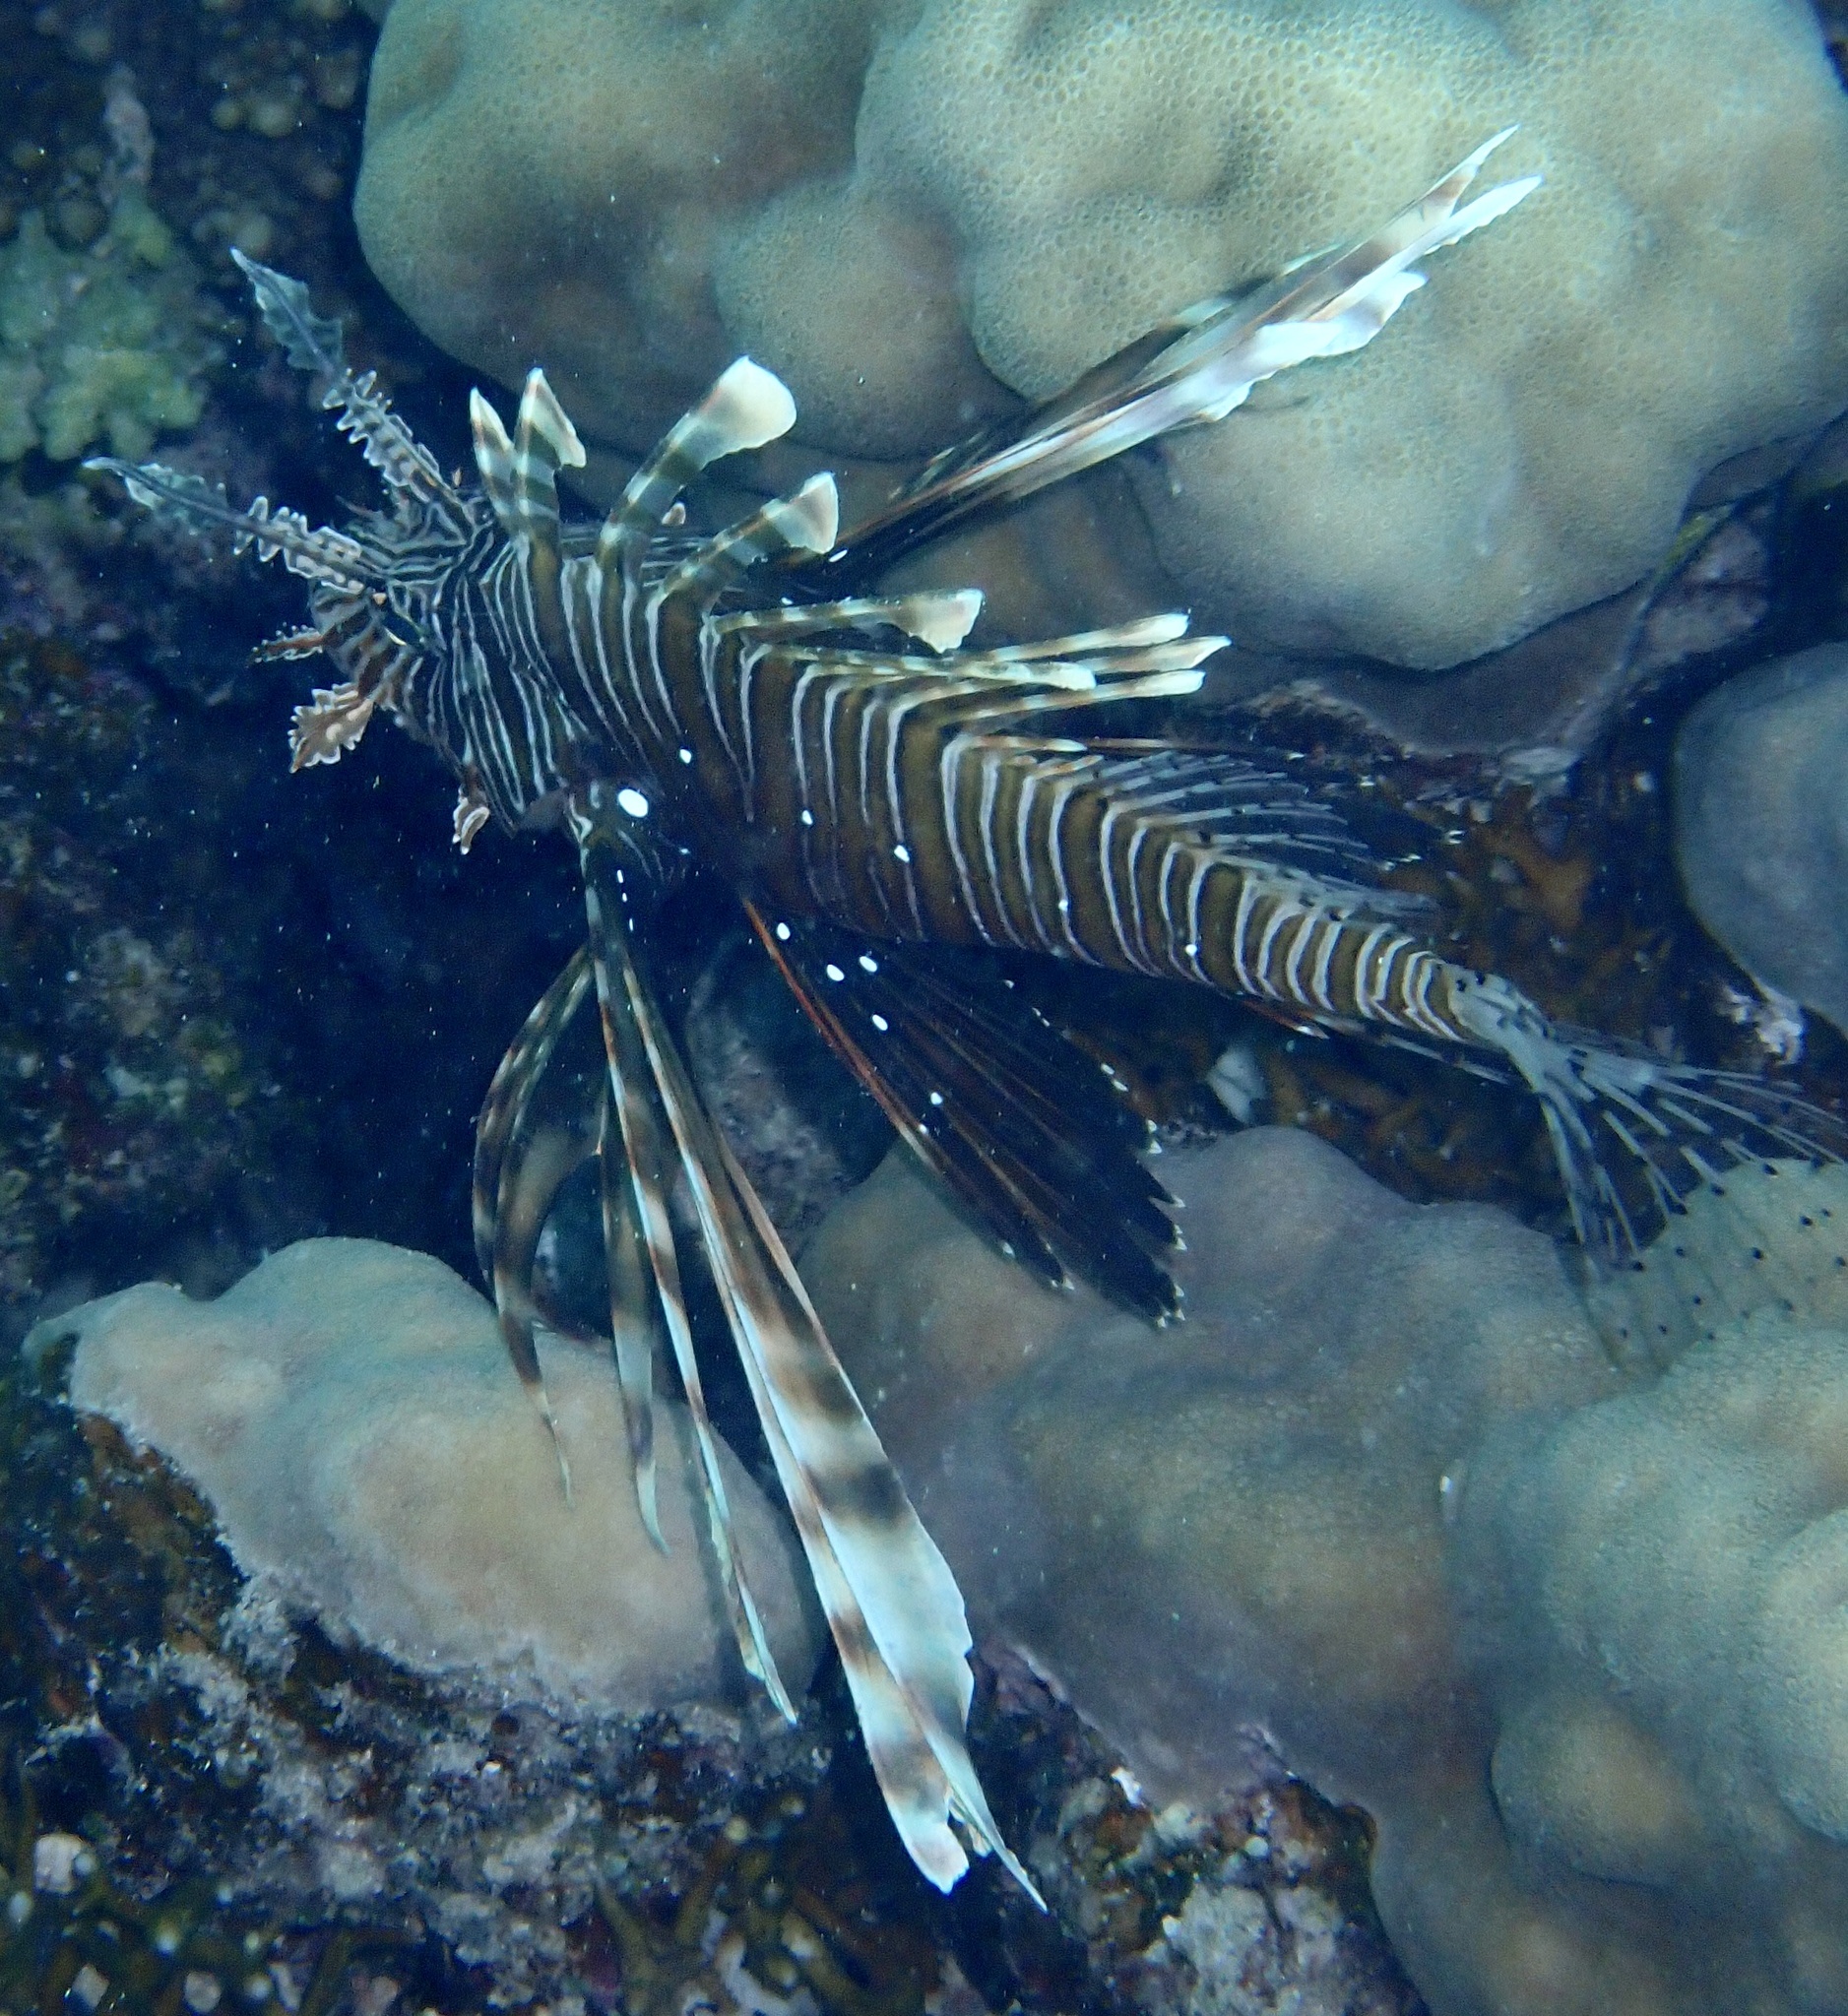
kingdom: Animalia
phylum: Chordata
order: Scorpaeniformes
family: Scorpaenidae
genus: Pterois
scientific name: Pterois miles
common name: Devil firefish
